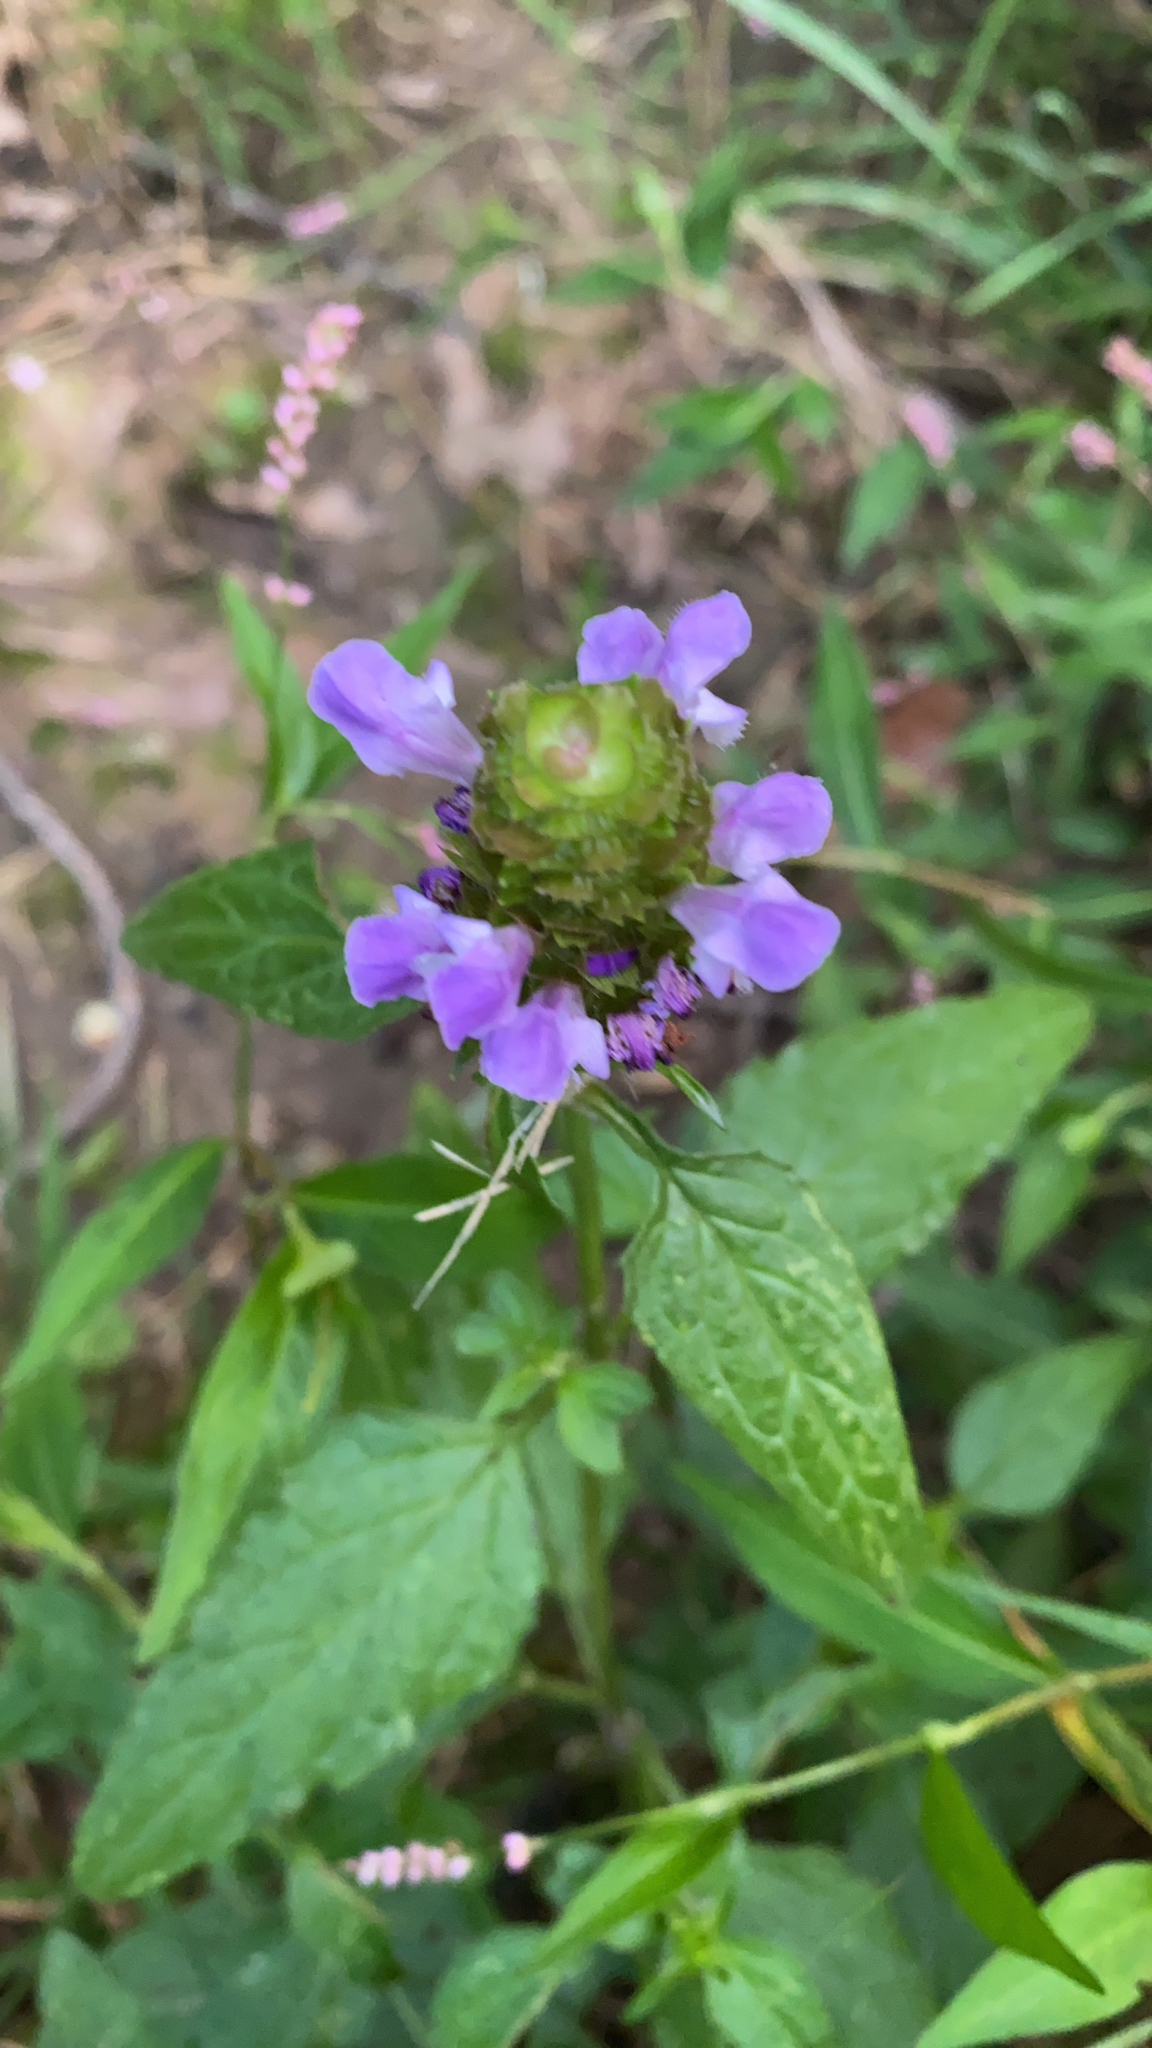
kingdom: Plantae
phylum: Tracheophyta
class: Magnoliopsida
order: Lamiales
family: Lamiaceae
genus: Prunella
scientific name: Prunella vulgaris
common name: Heal-all
